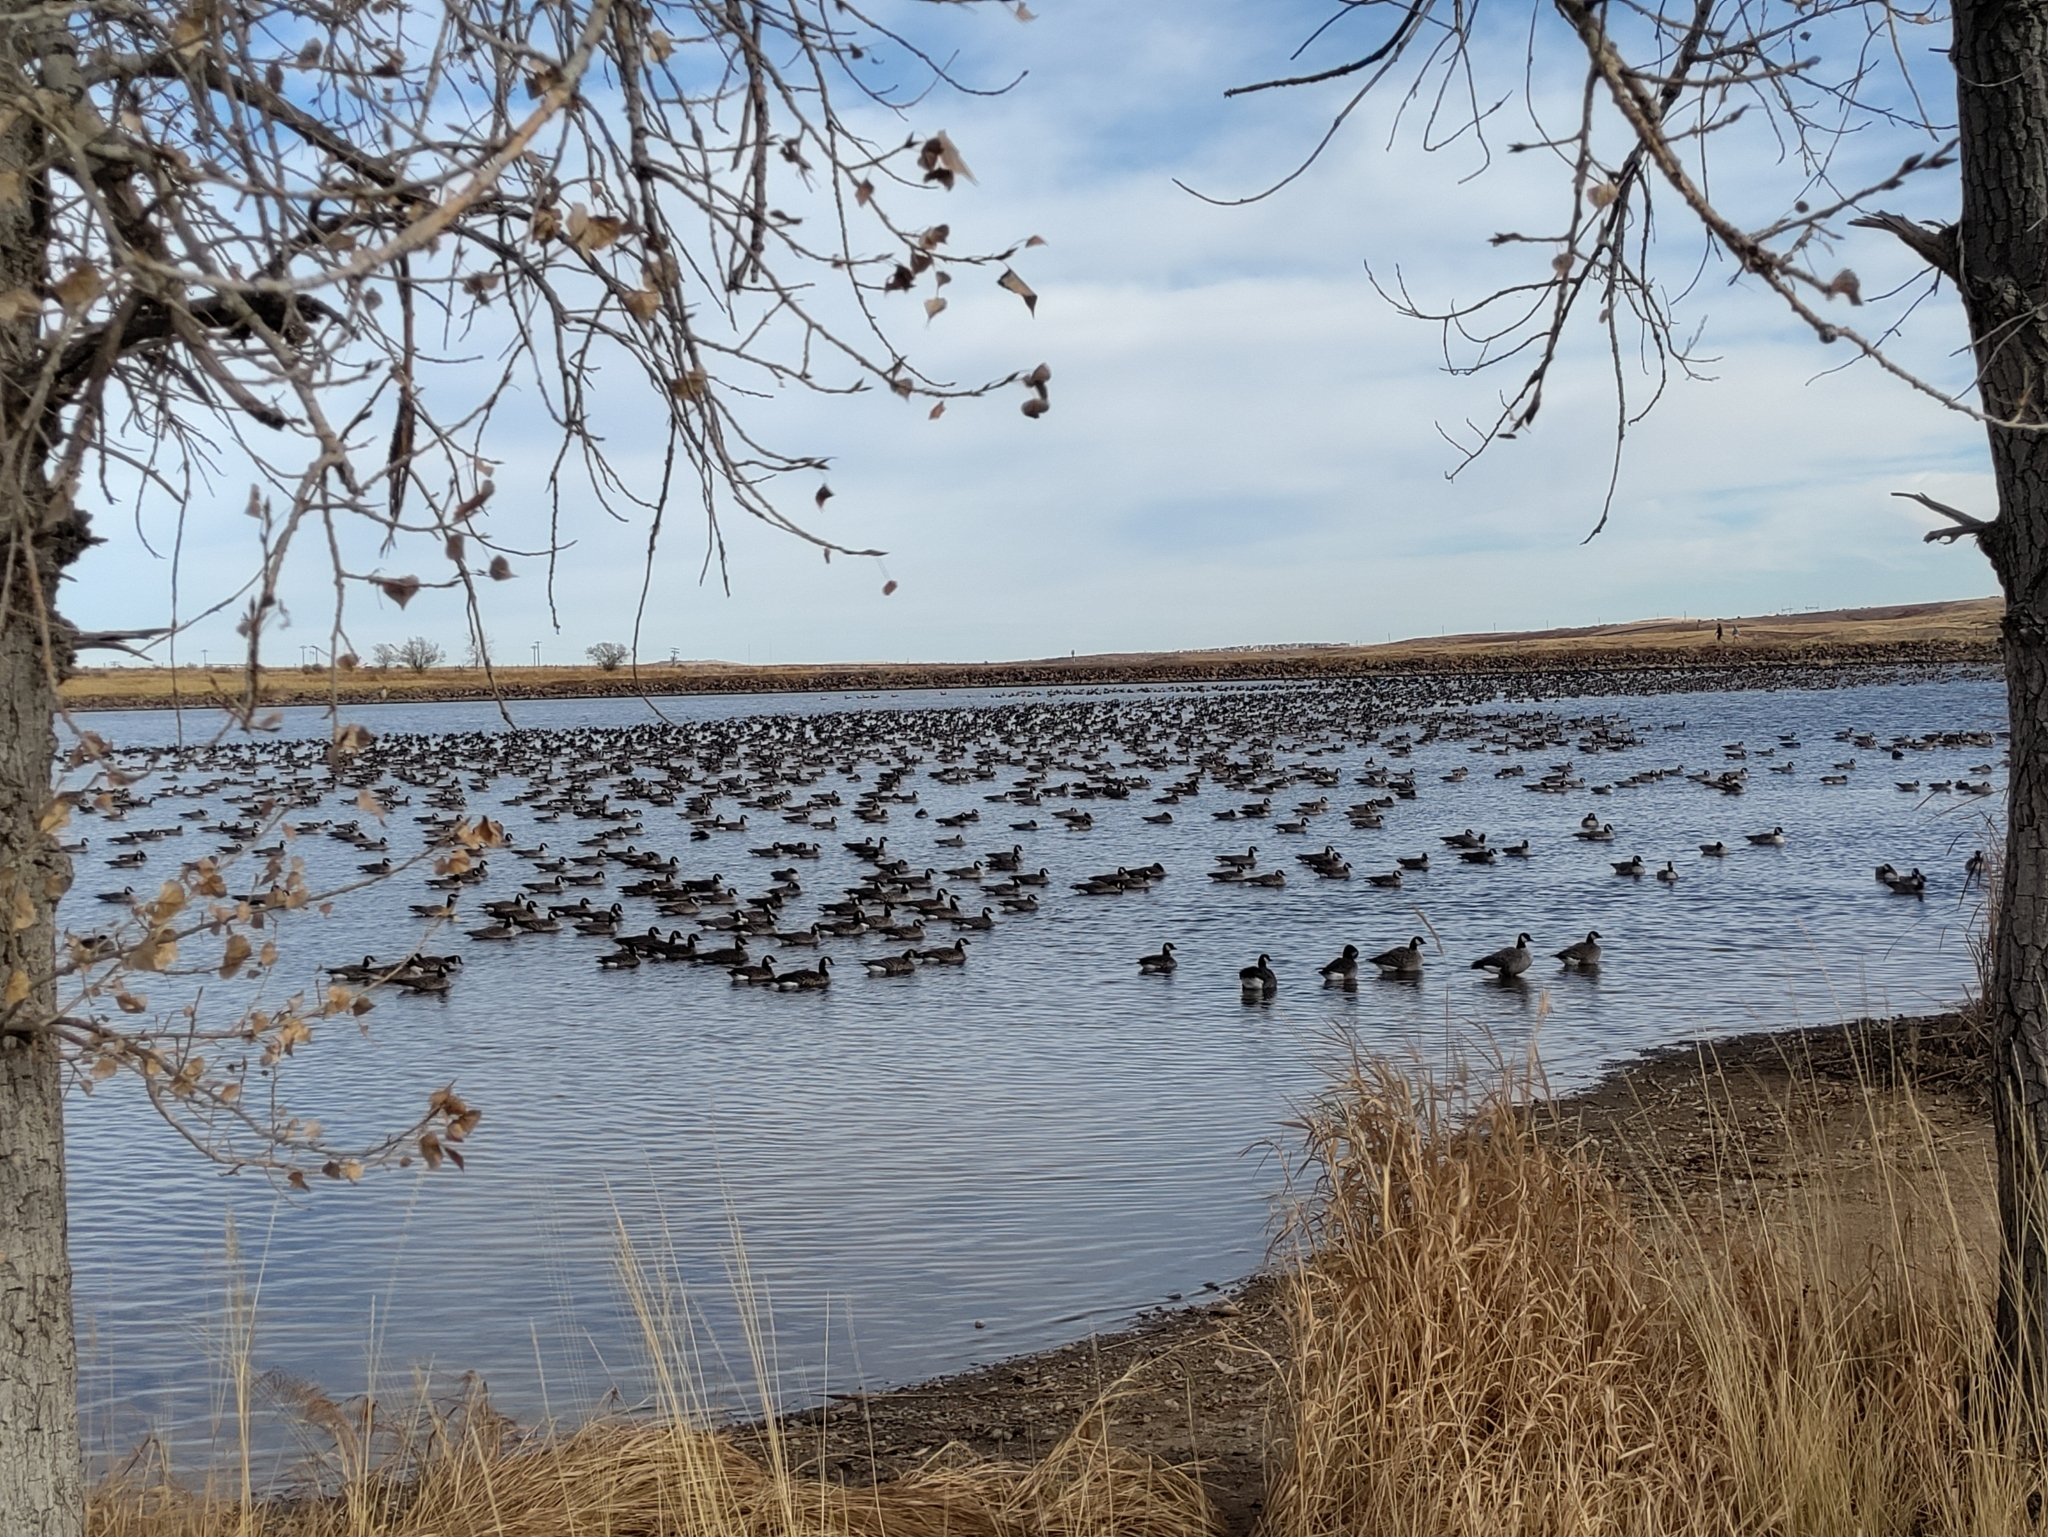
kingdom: Animalia
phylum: Chordata
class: Aves
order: Anseriformes
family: Anatidae
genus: Branta
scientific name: Branta hutchinsii
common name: Cackling goose
